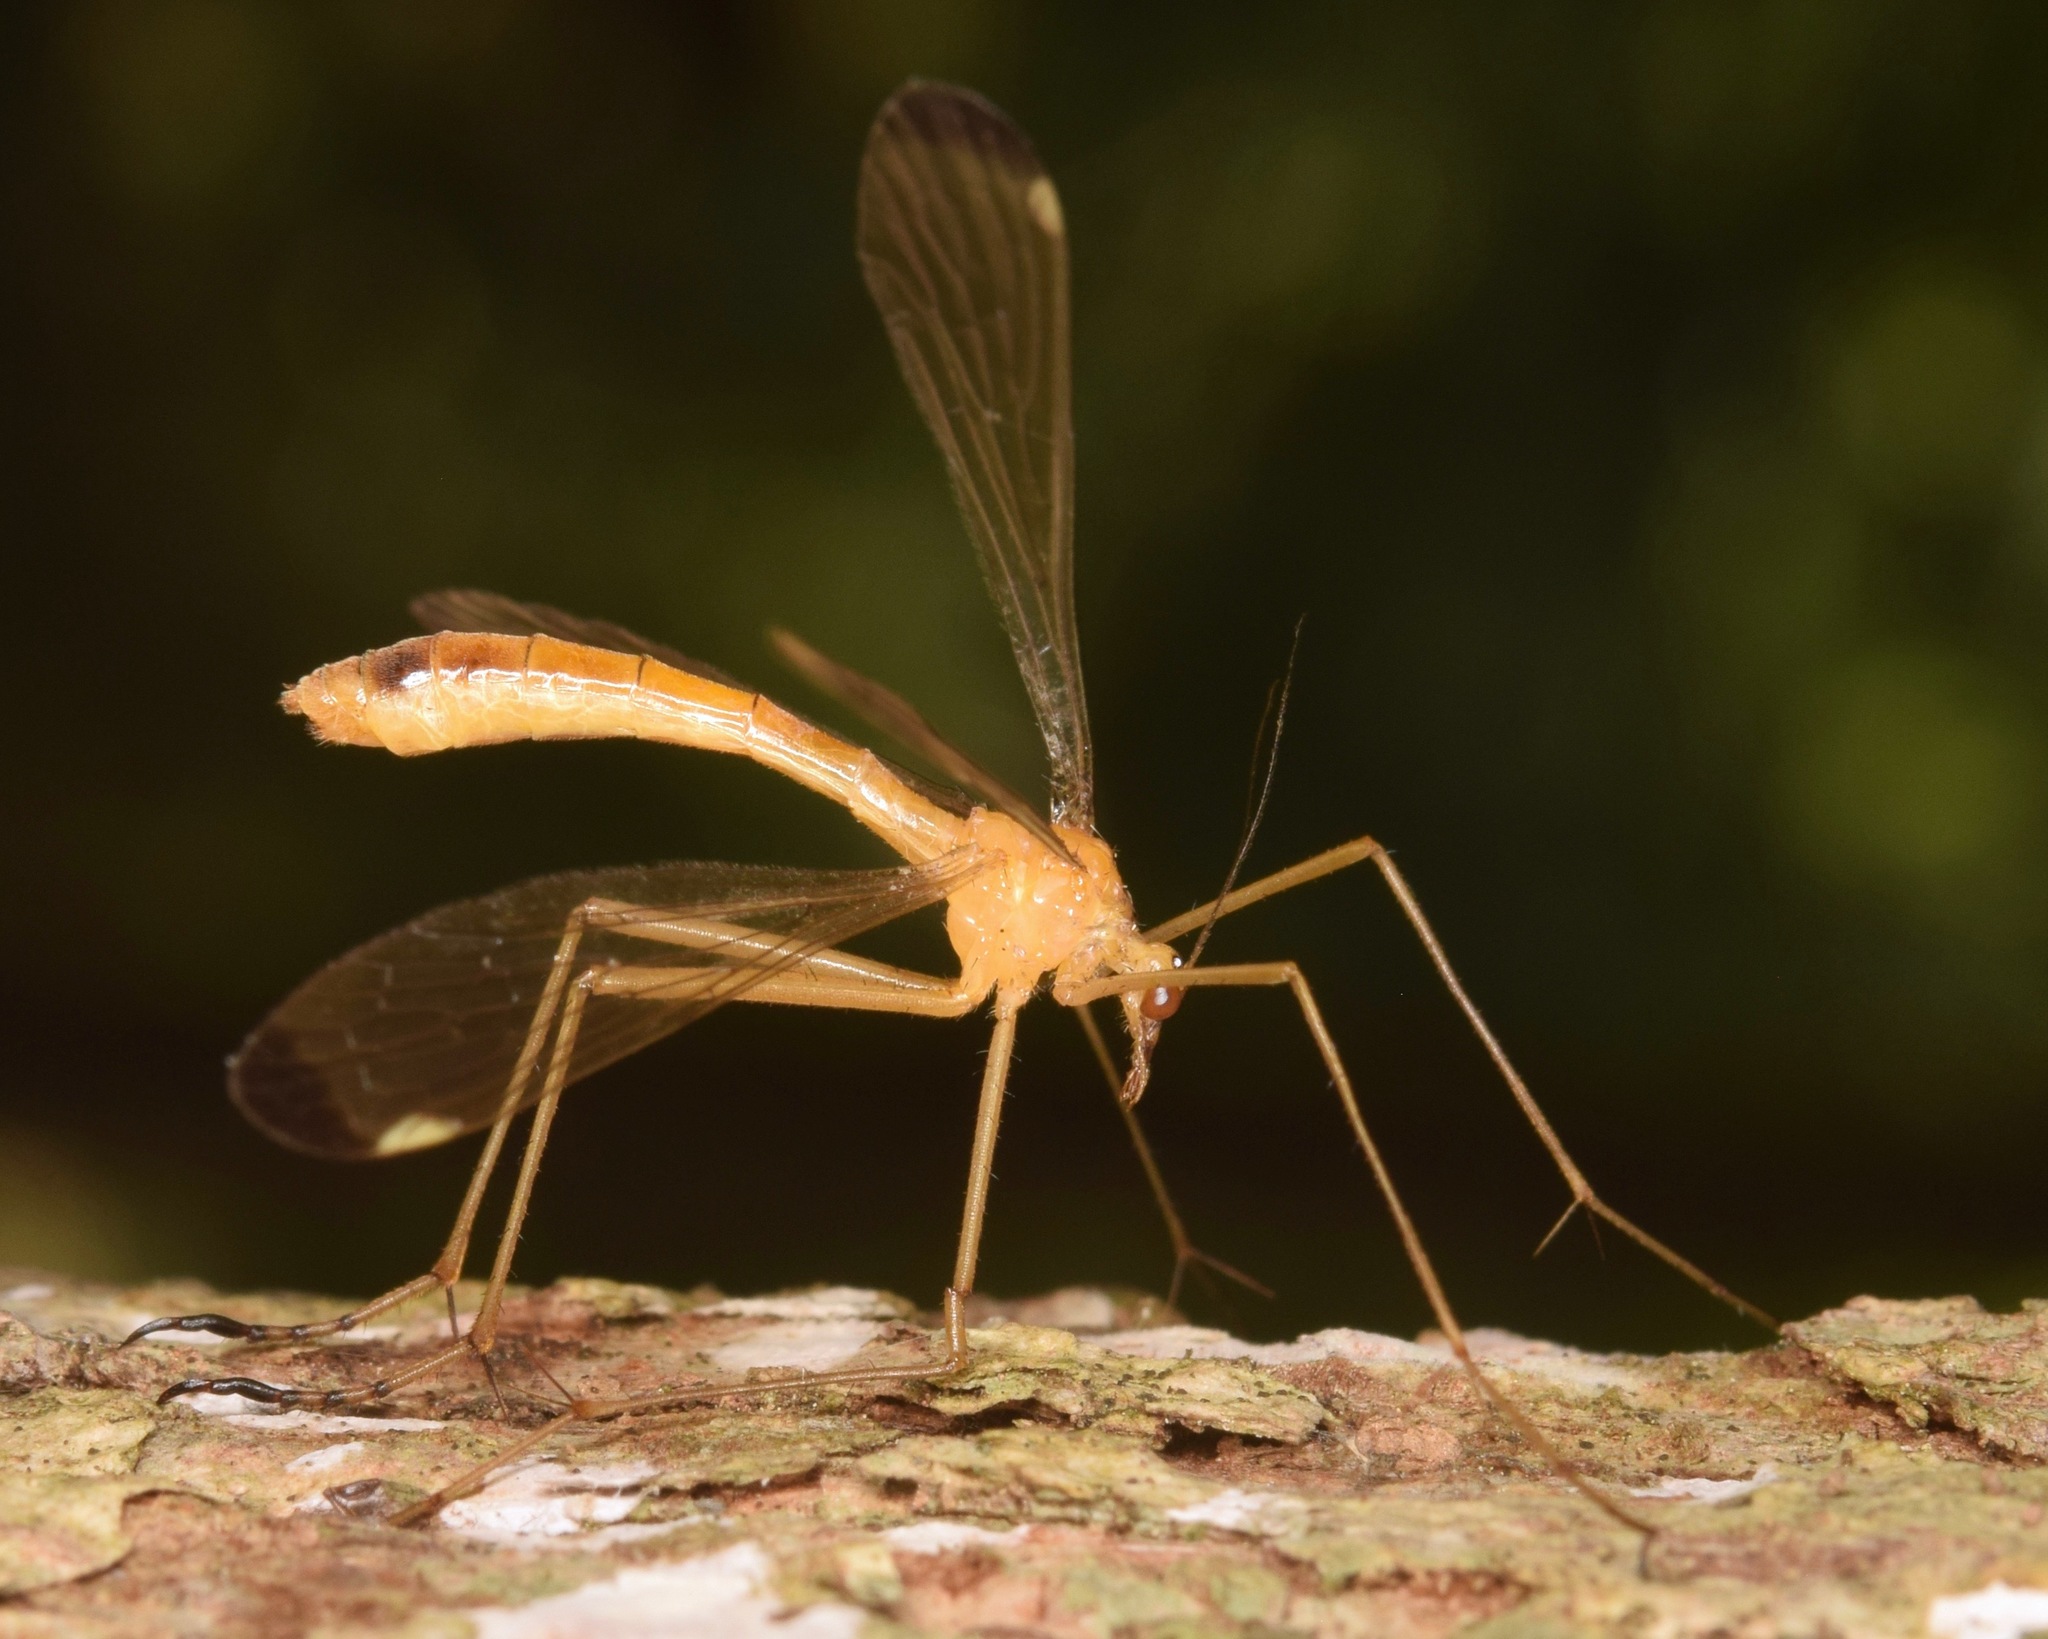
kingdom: Animalia
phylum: Arthropoda
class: Insecta
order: Mecoptera
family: Bittacidae
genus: Hylobittacus
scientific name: Hylobittacus apicalis
